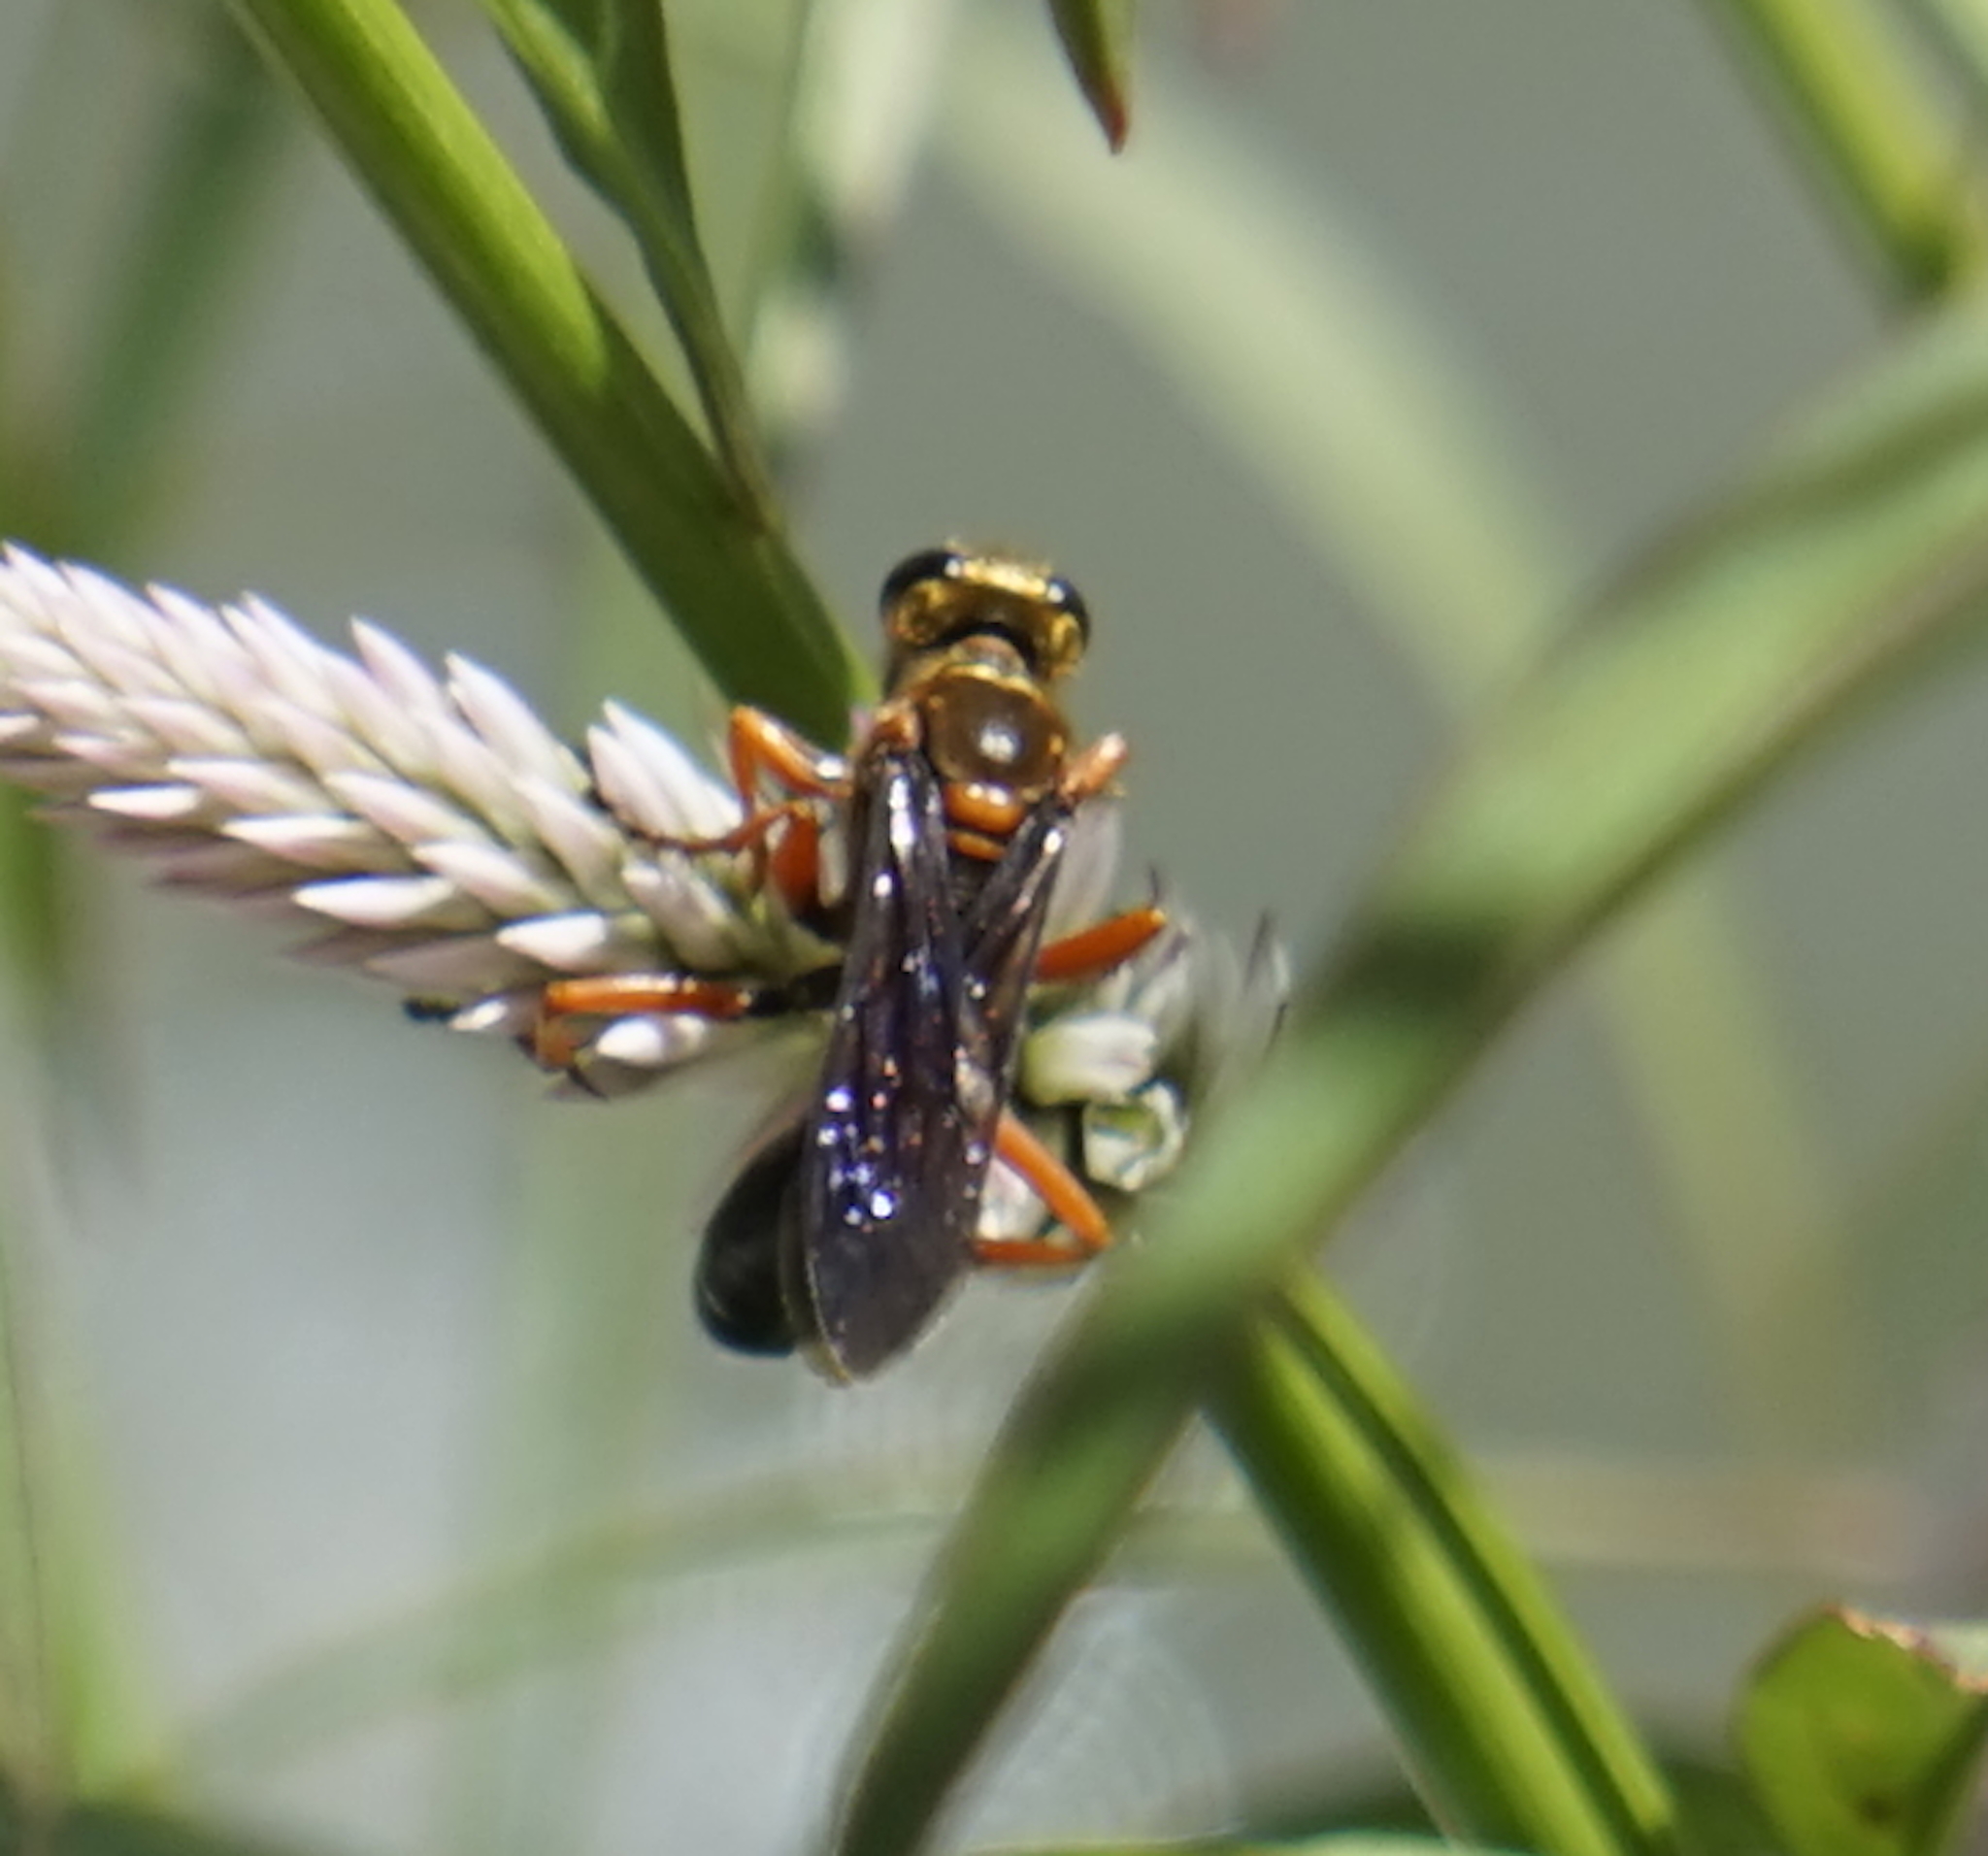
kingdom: Animalia
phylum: Arthropoda
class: Insecta
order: Hymenoptera
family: Sphecidae
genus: Sphex
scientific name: Sphex sericeus
